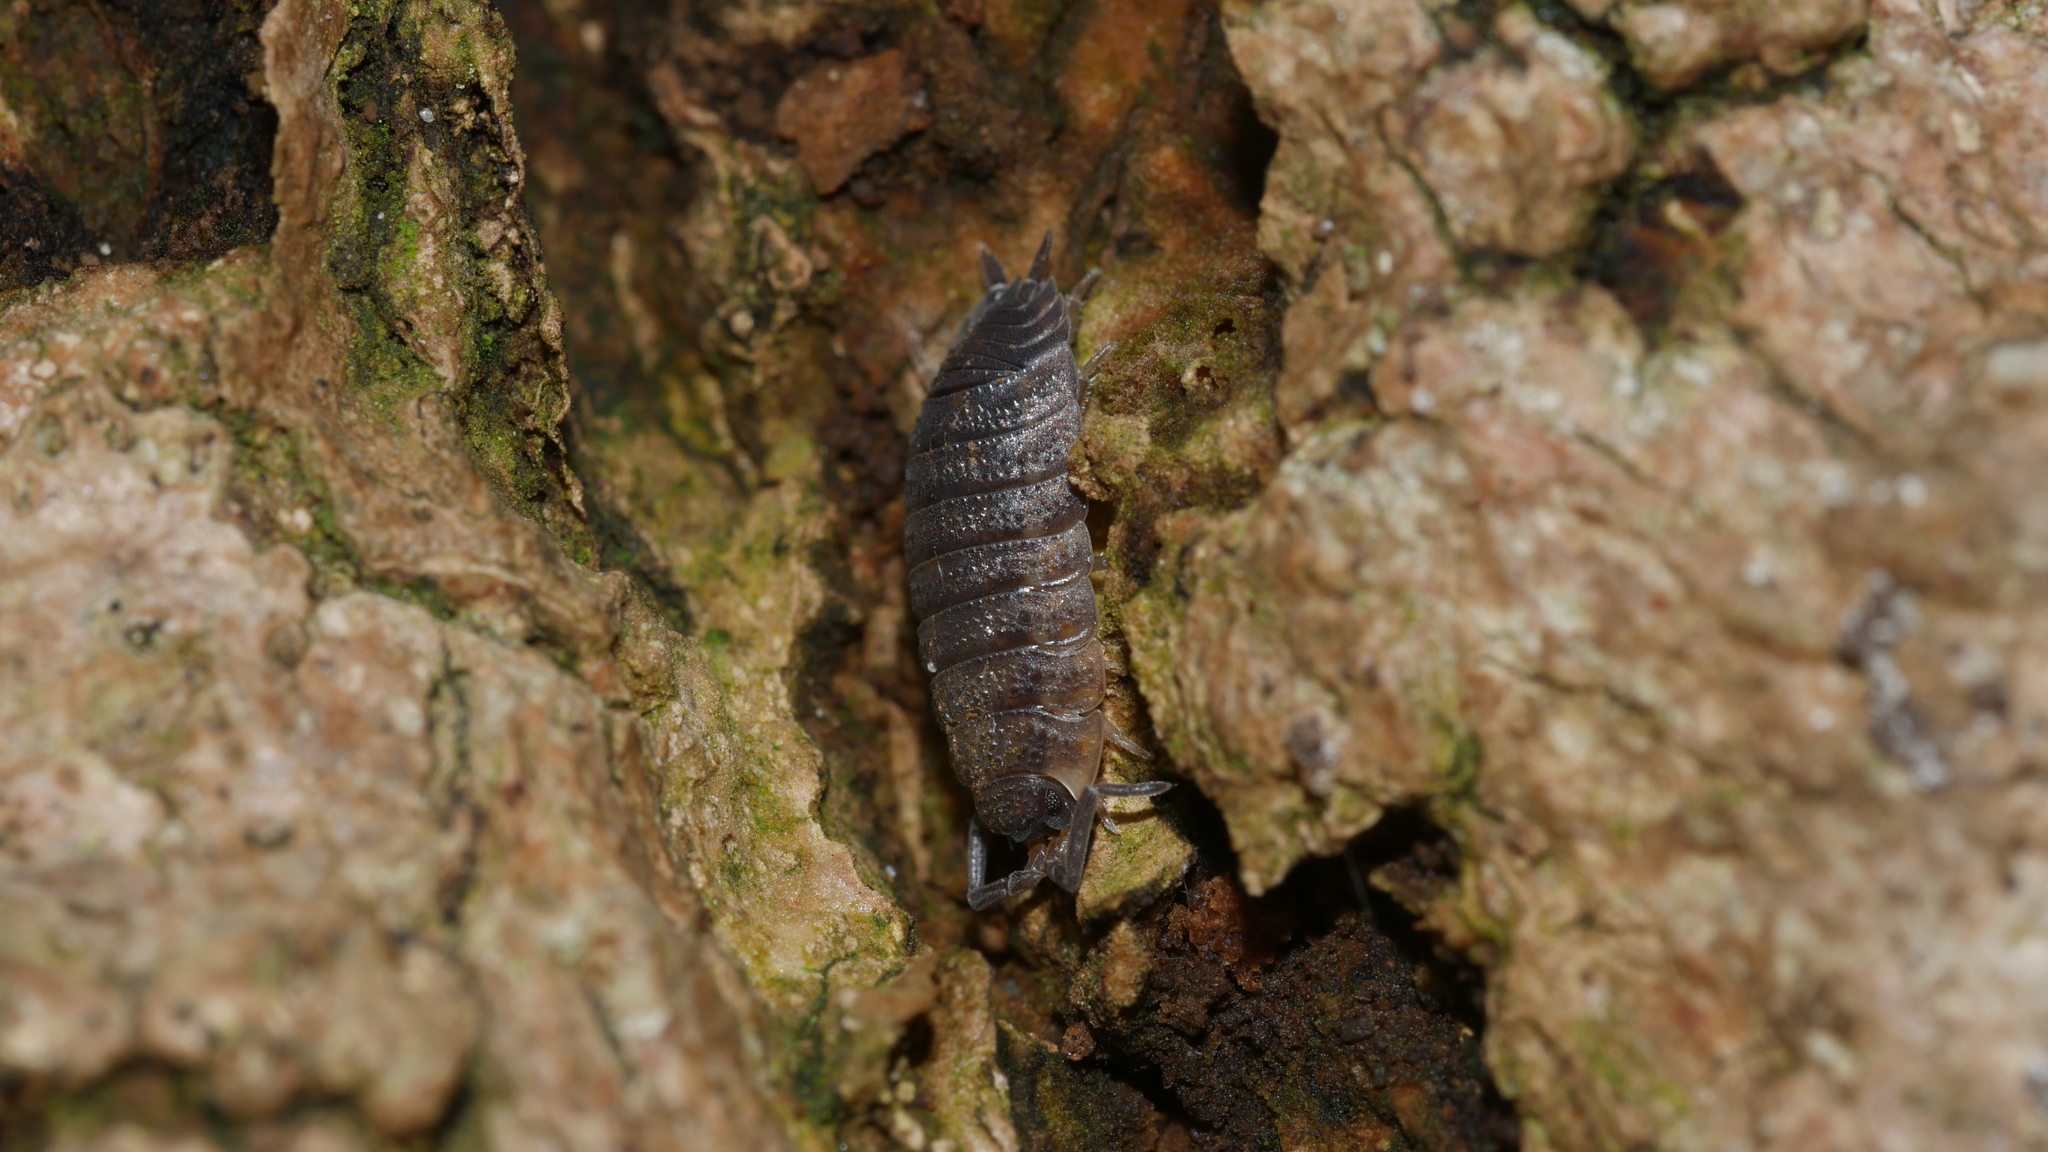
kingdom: Animalia
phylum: Arthropoda
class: Malacostraca
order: Isopoda
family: Porcellionidae
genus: Porcellio
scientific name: Porcellio scaber
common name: Common rough woodlouse
